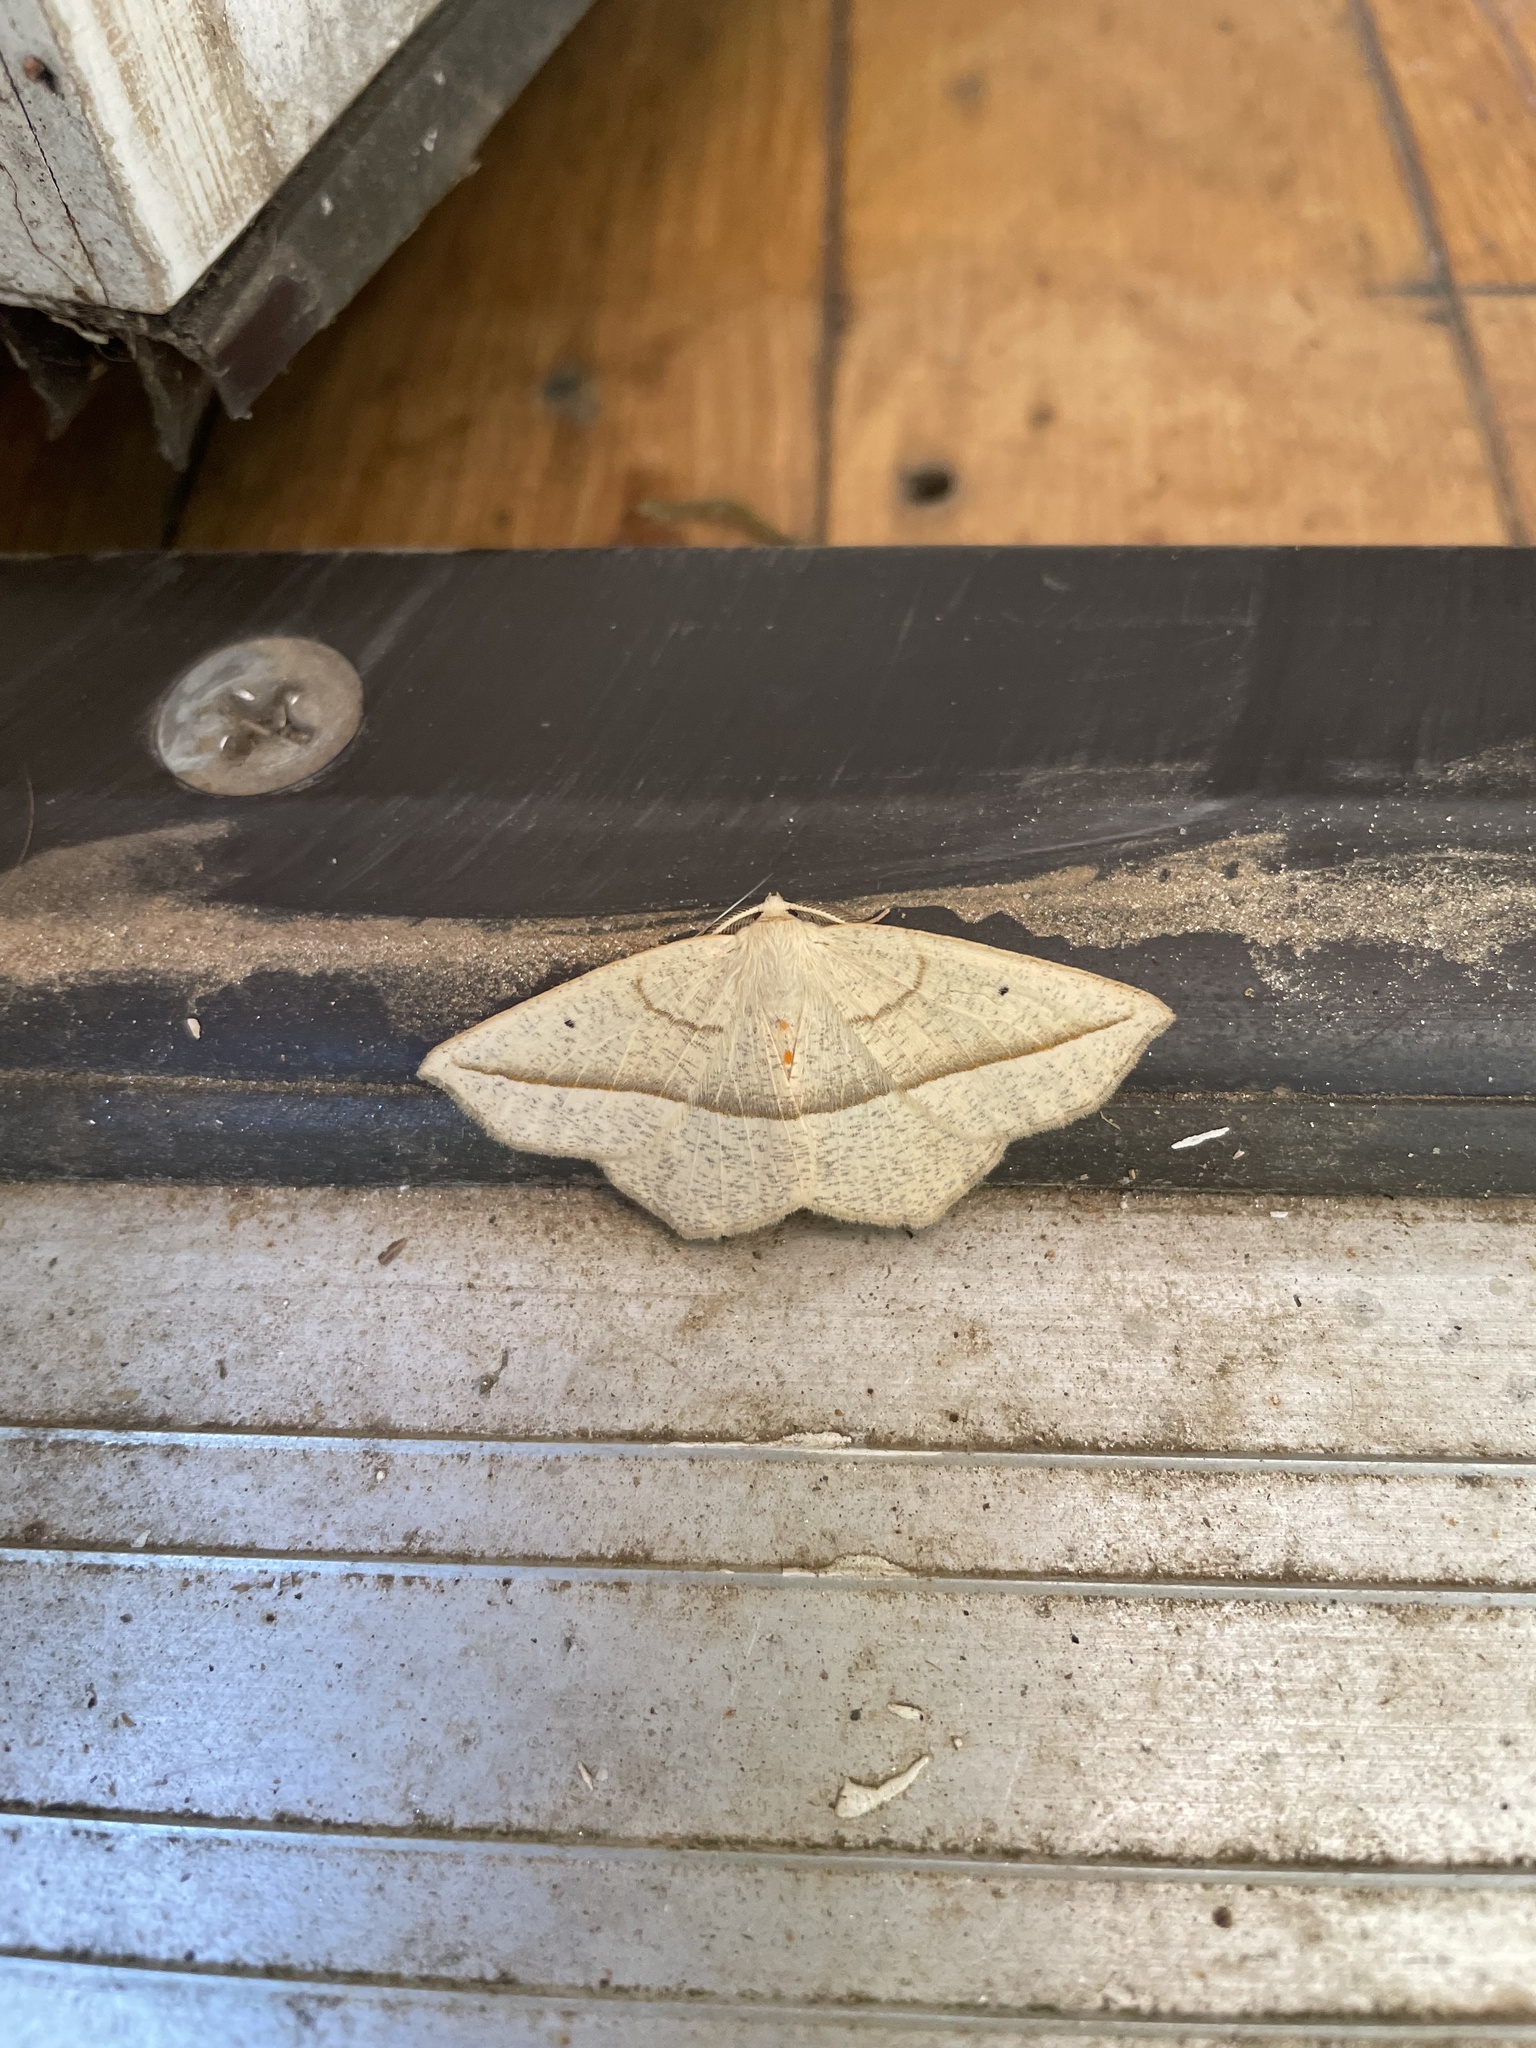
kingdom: Animalia
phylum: Arthropoda
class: Insecta
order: Lepidoptera
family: Geometridae
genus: Eusarca
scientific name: Eusarca confusaria
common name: Confused eusarca
